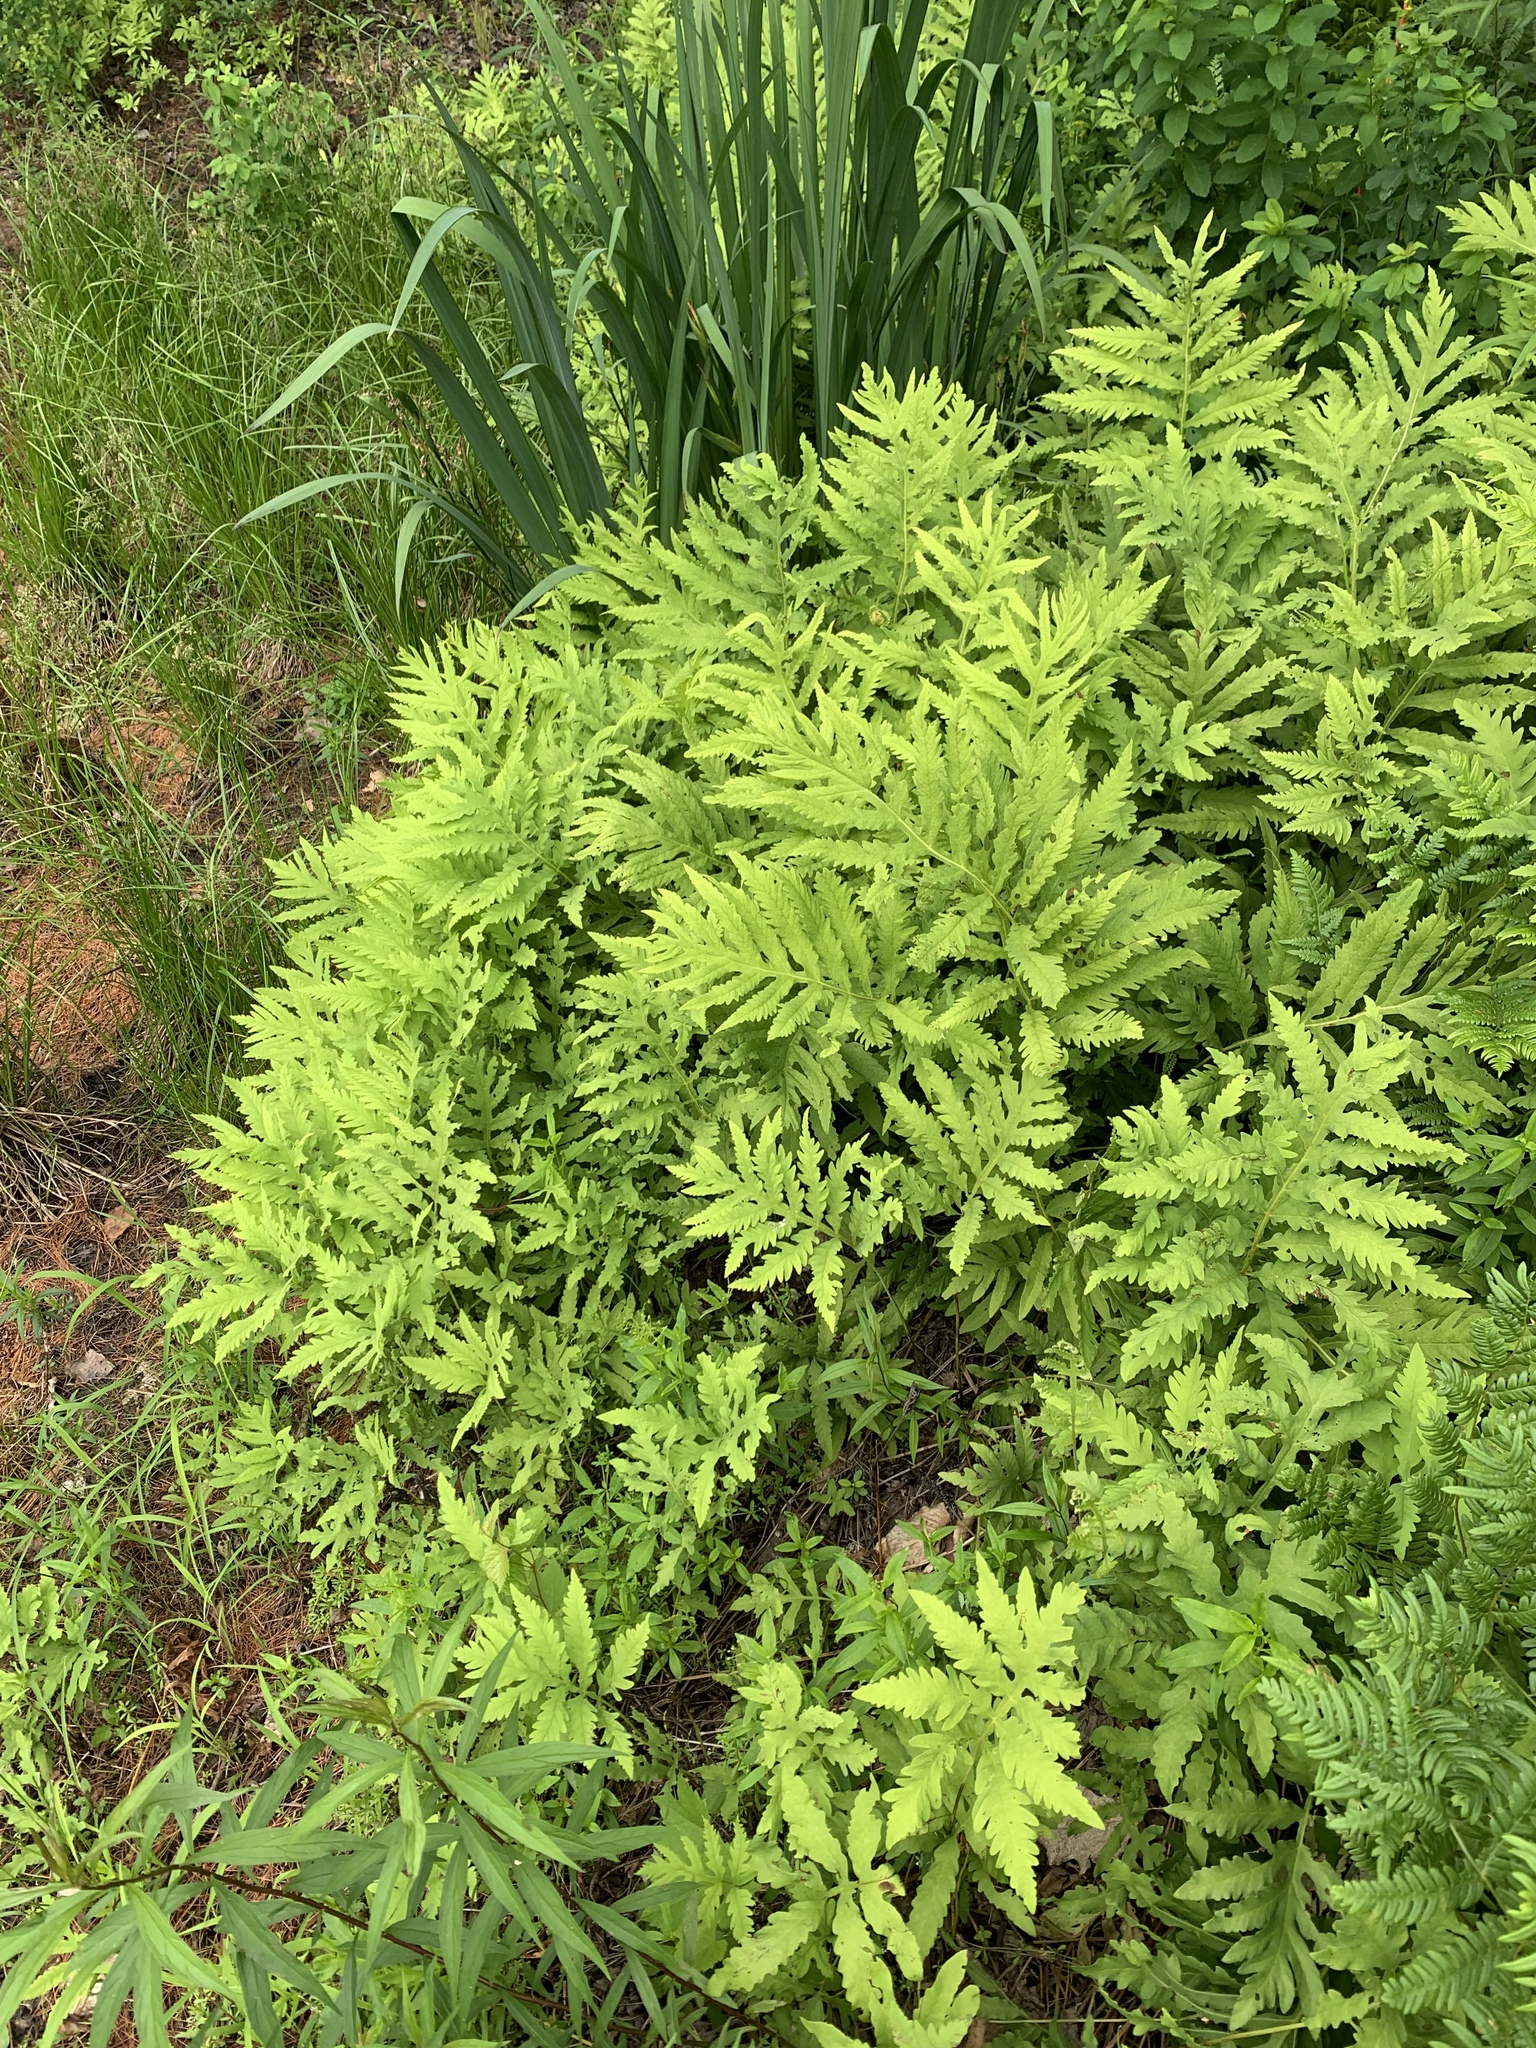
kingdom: Plantae
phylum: Tracheophyta
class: Polypodiopsida
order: Polypodiales
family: Onocleaceae
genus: Onoclea
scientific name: Onoclea sensibilis
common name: Sensitive fern
